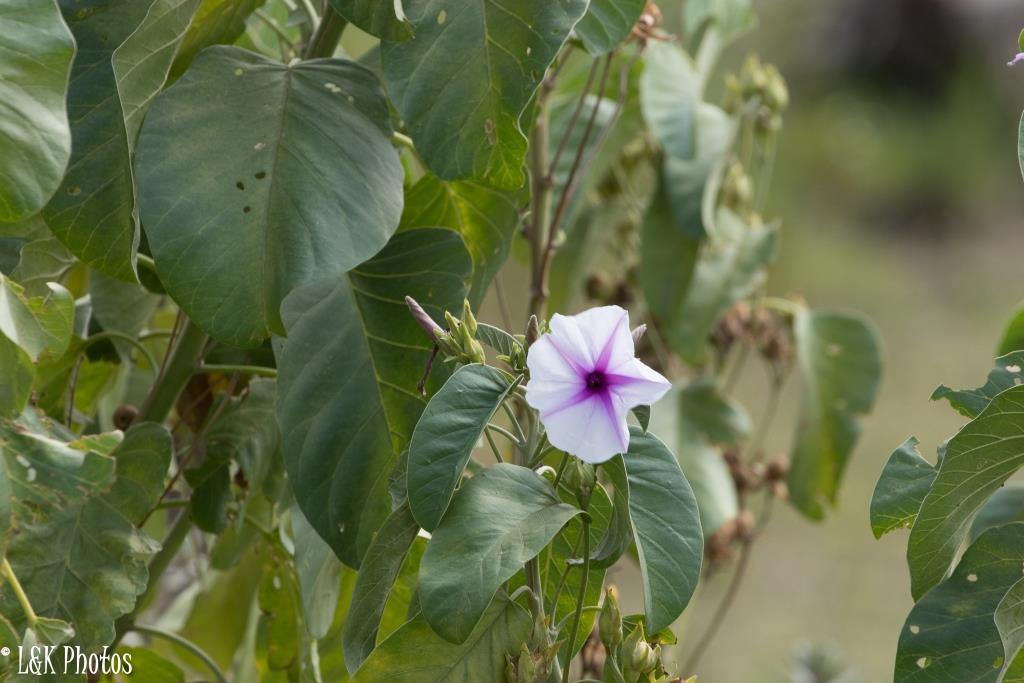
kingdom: Plantae
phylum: Tracheophyta
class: Magnoliopsida
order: Solanales
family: Convolvulaceae
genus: Ipomoea
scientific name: Ipomoea hildebrandtii
